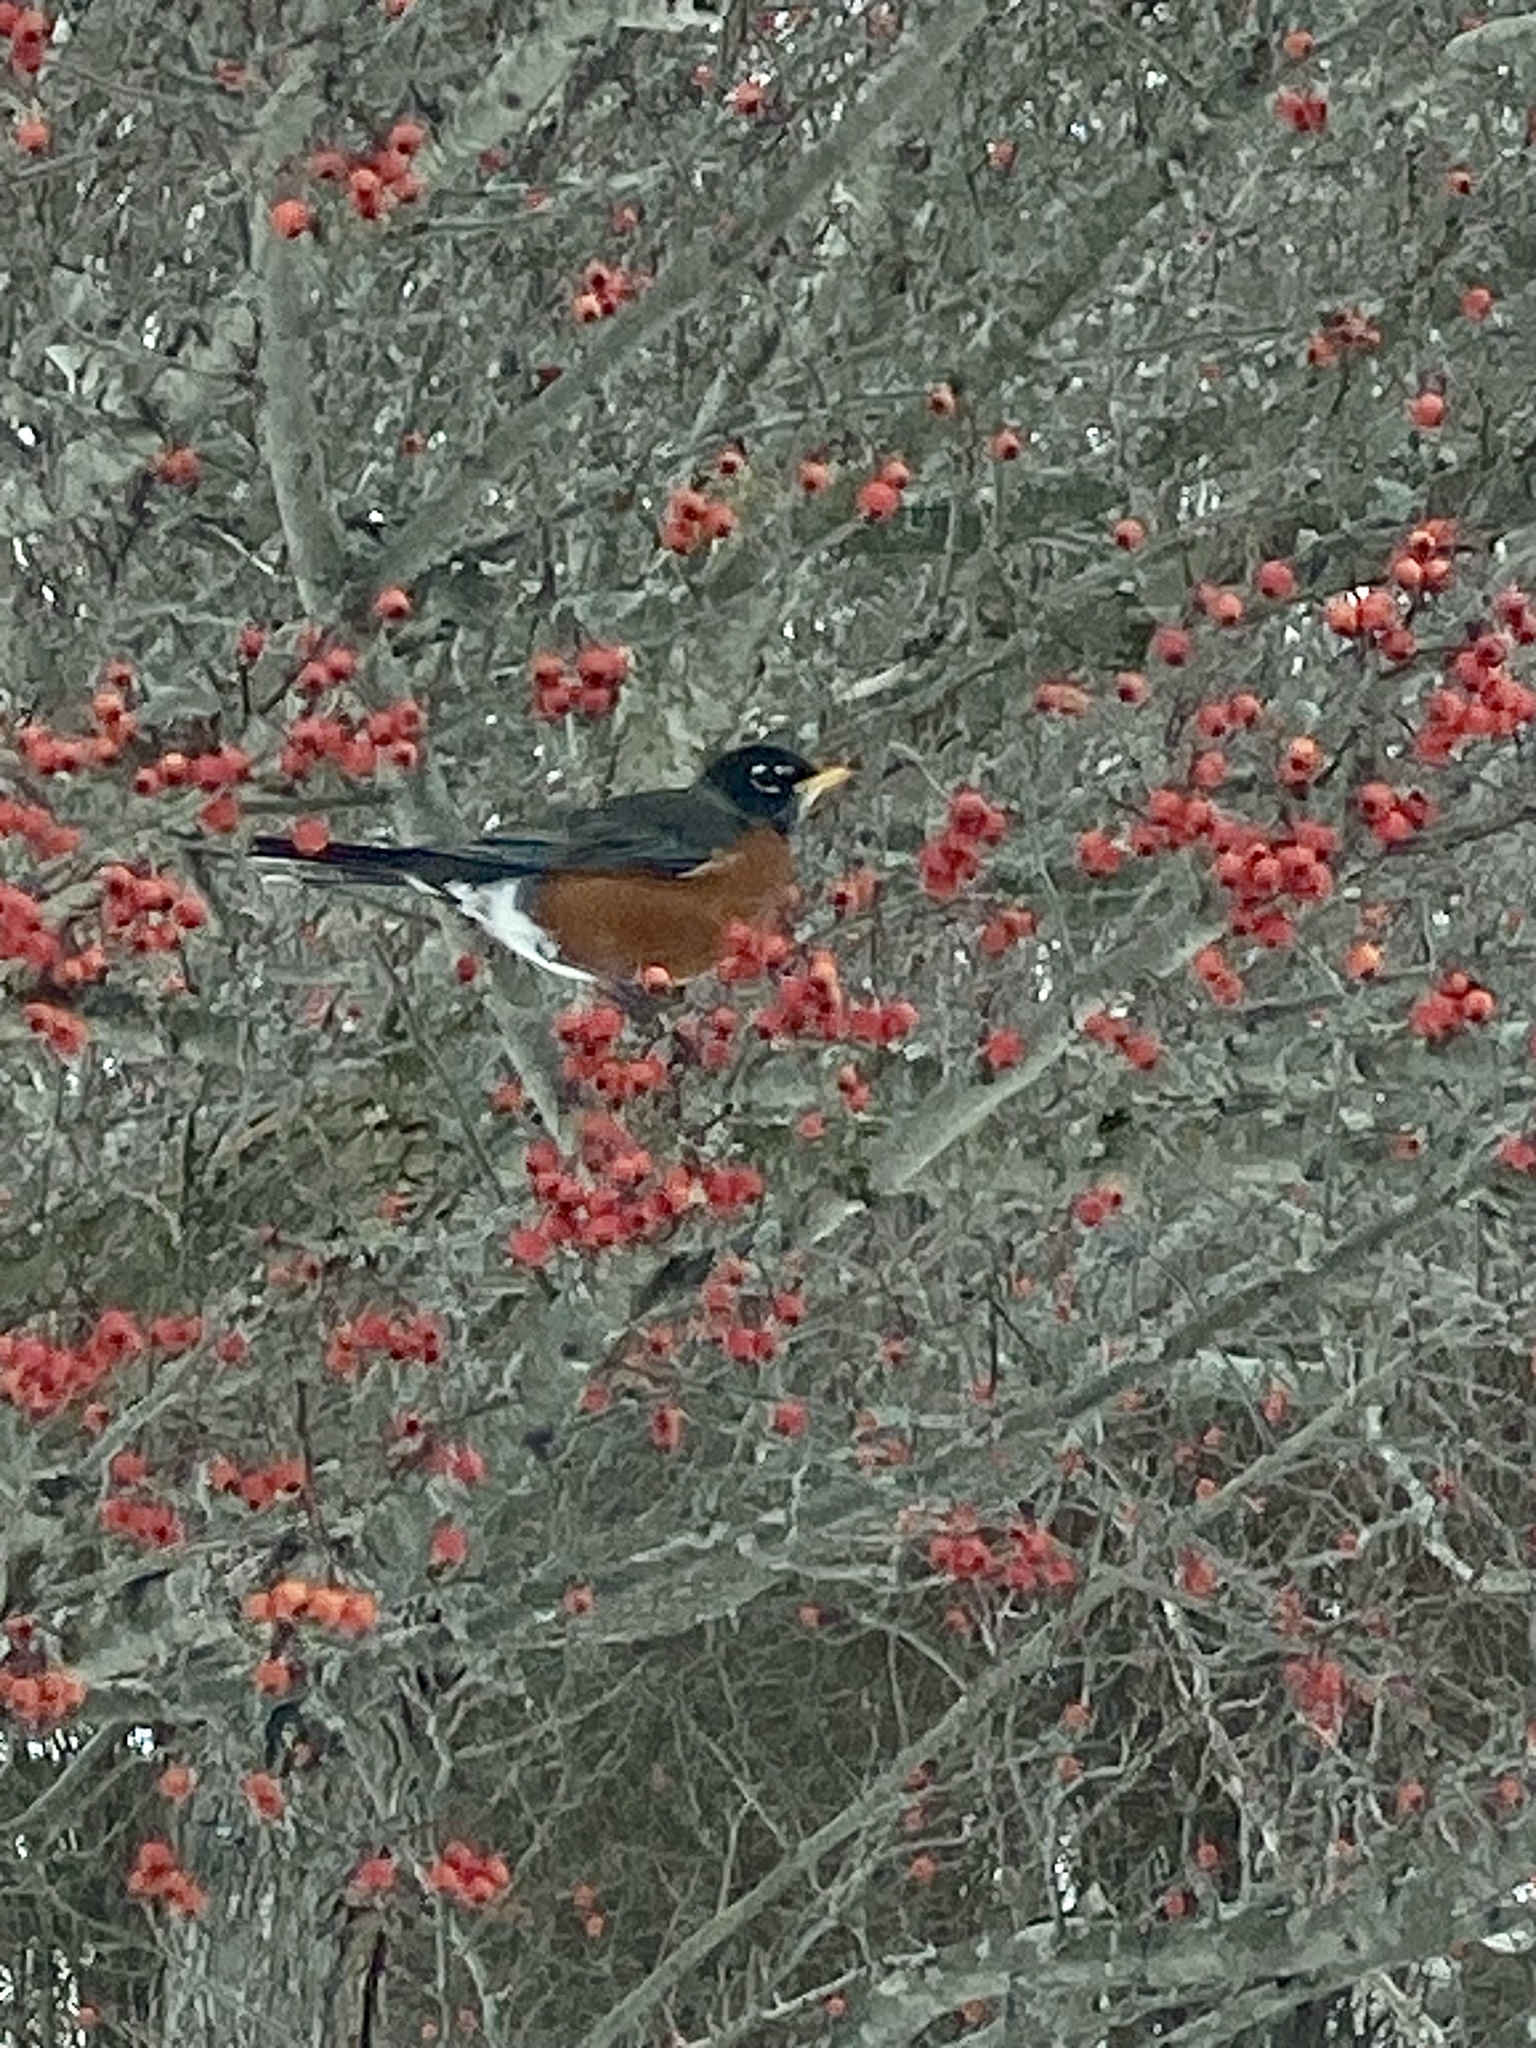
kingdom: Animalia
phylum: Chordata
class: Aves
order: Passeriformes
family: Turdidae
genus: Turdus
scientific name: Turdus migratorius
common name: American robin
